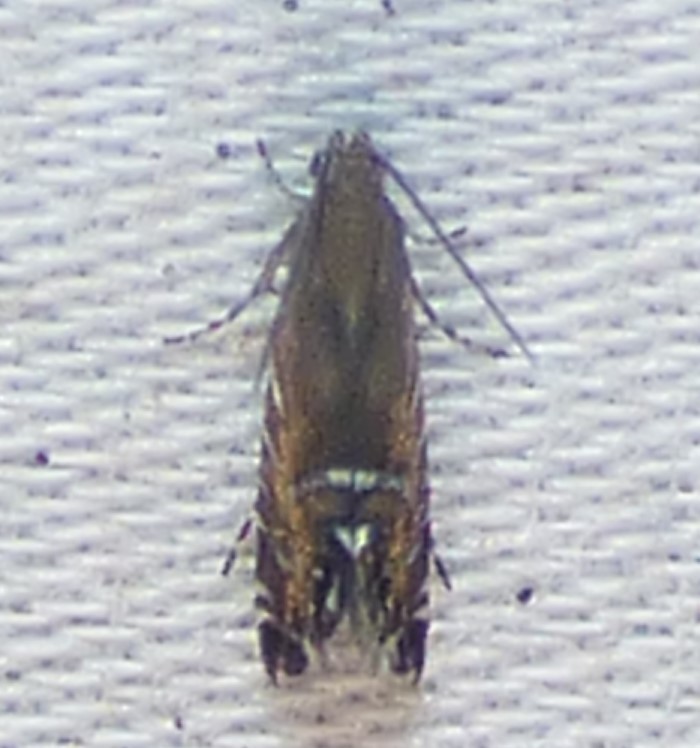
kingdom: Animalia
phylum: Arthropoda
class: Insecta
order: Lepidoptera
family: Glyphipterigidae
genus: Glyphipterix
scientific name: Glyphipterix Diploschizia impigritella
